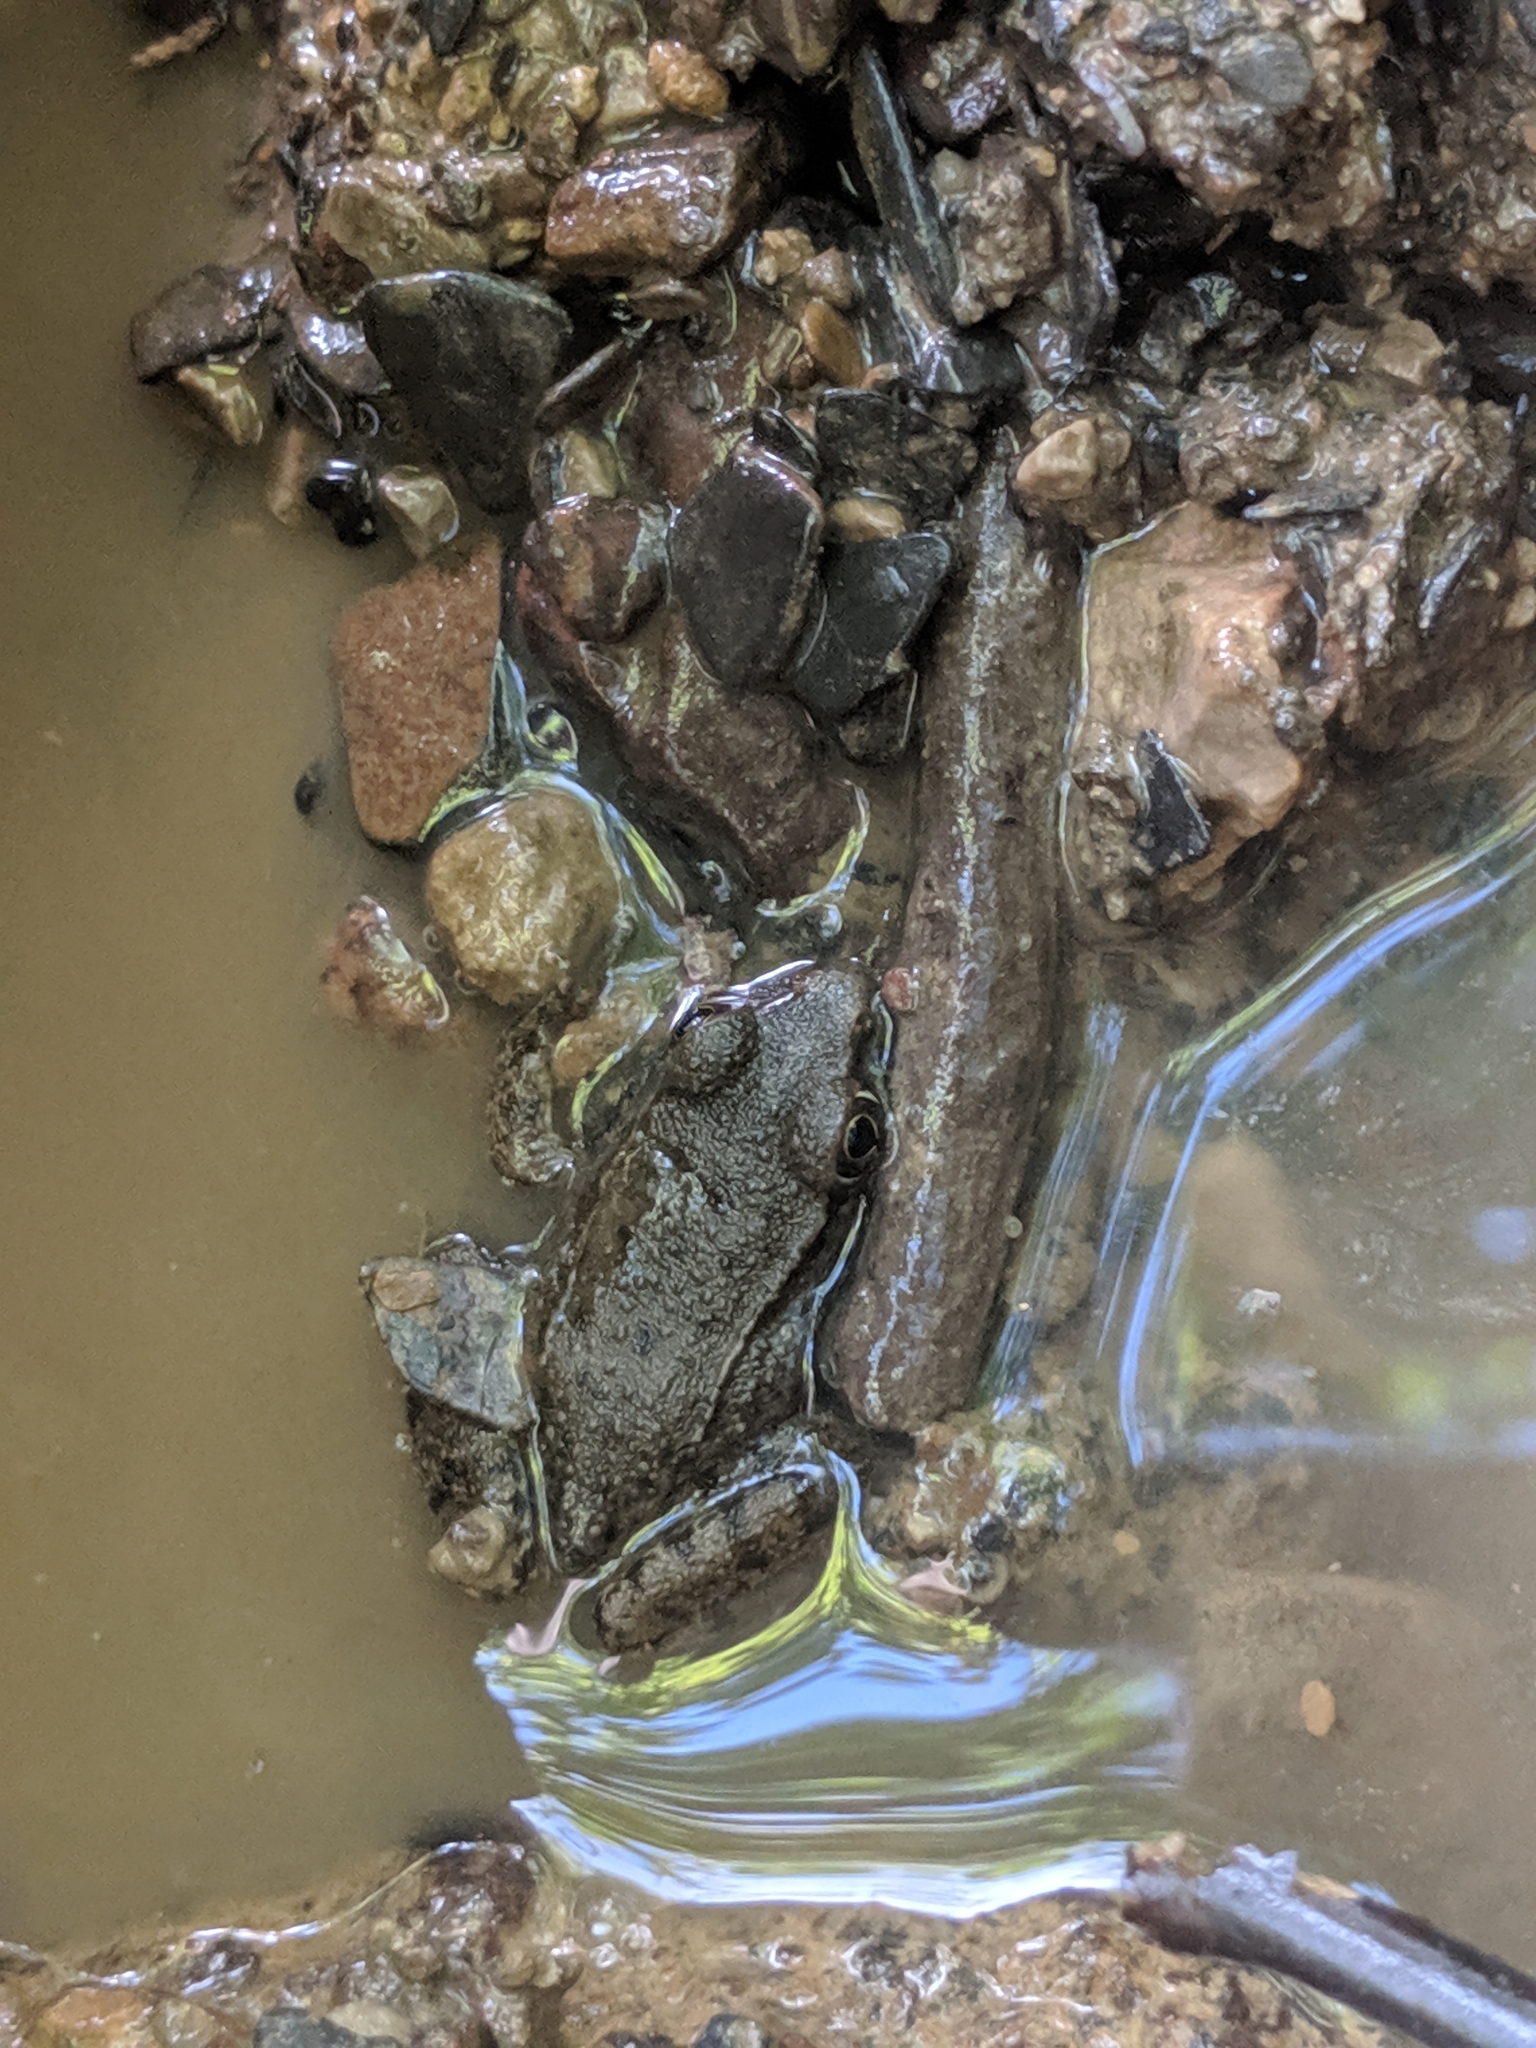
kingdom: Animalia
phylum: Chordata
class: Amphibia
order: Anura
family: Ranidae
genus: Lithobates
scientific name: Lithobates clamitans
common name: Green frog
